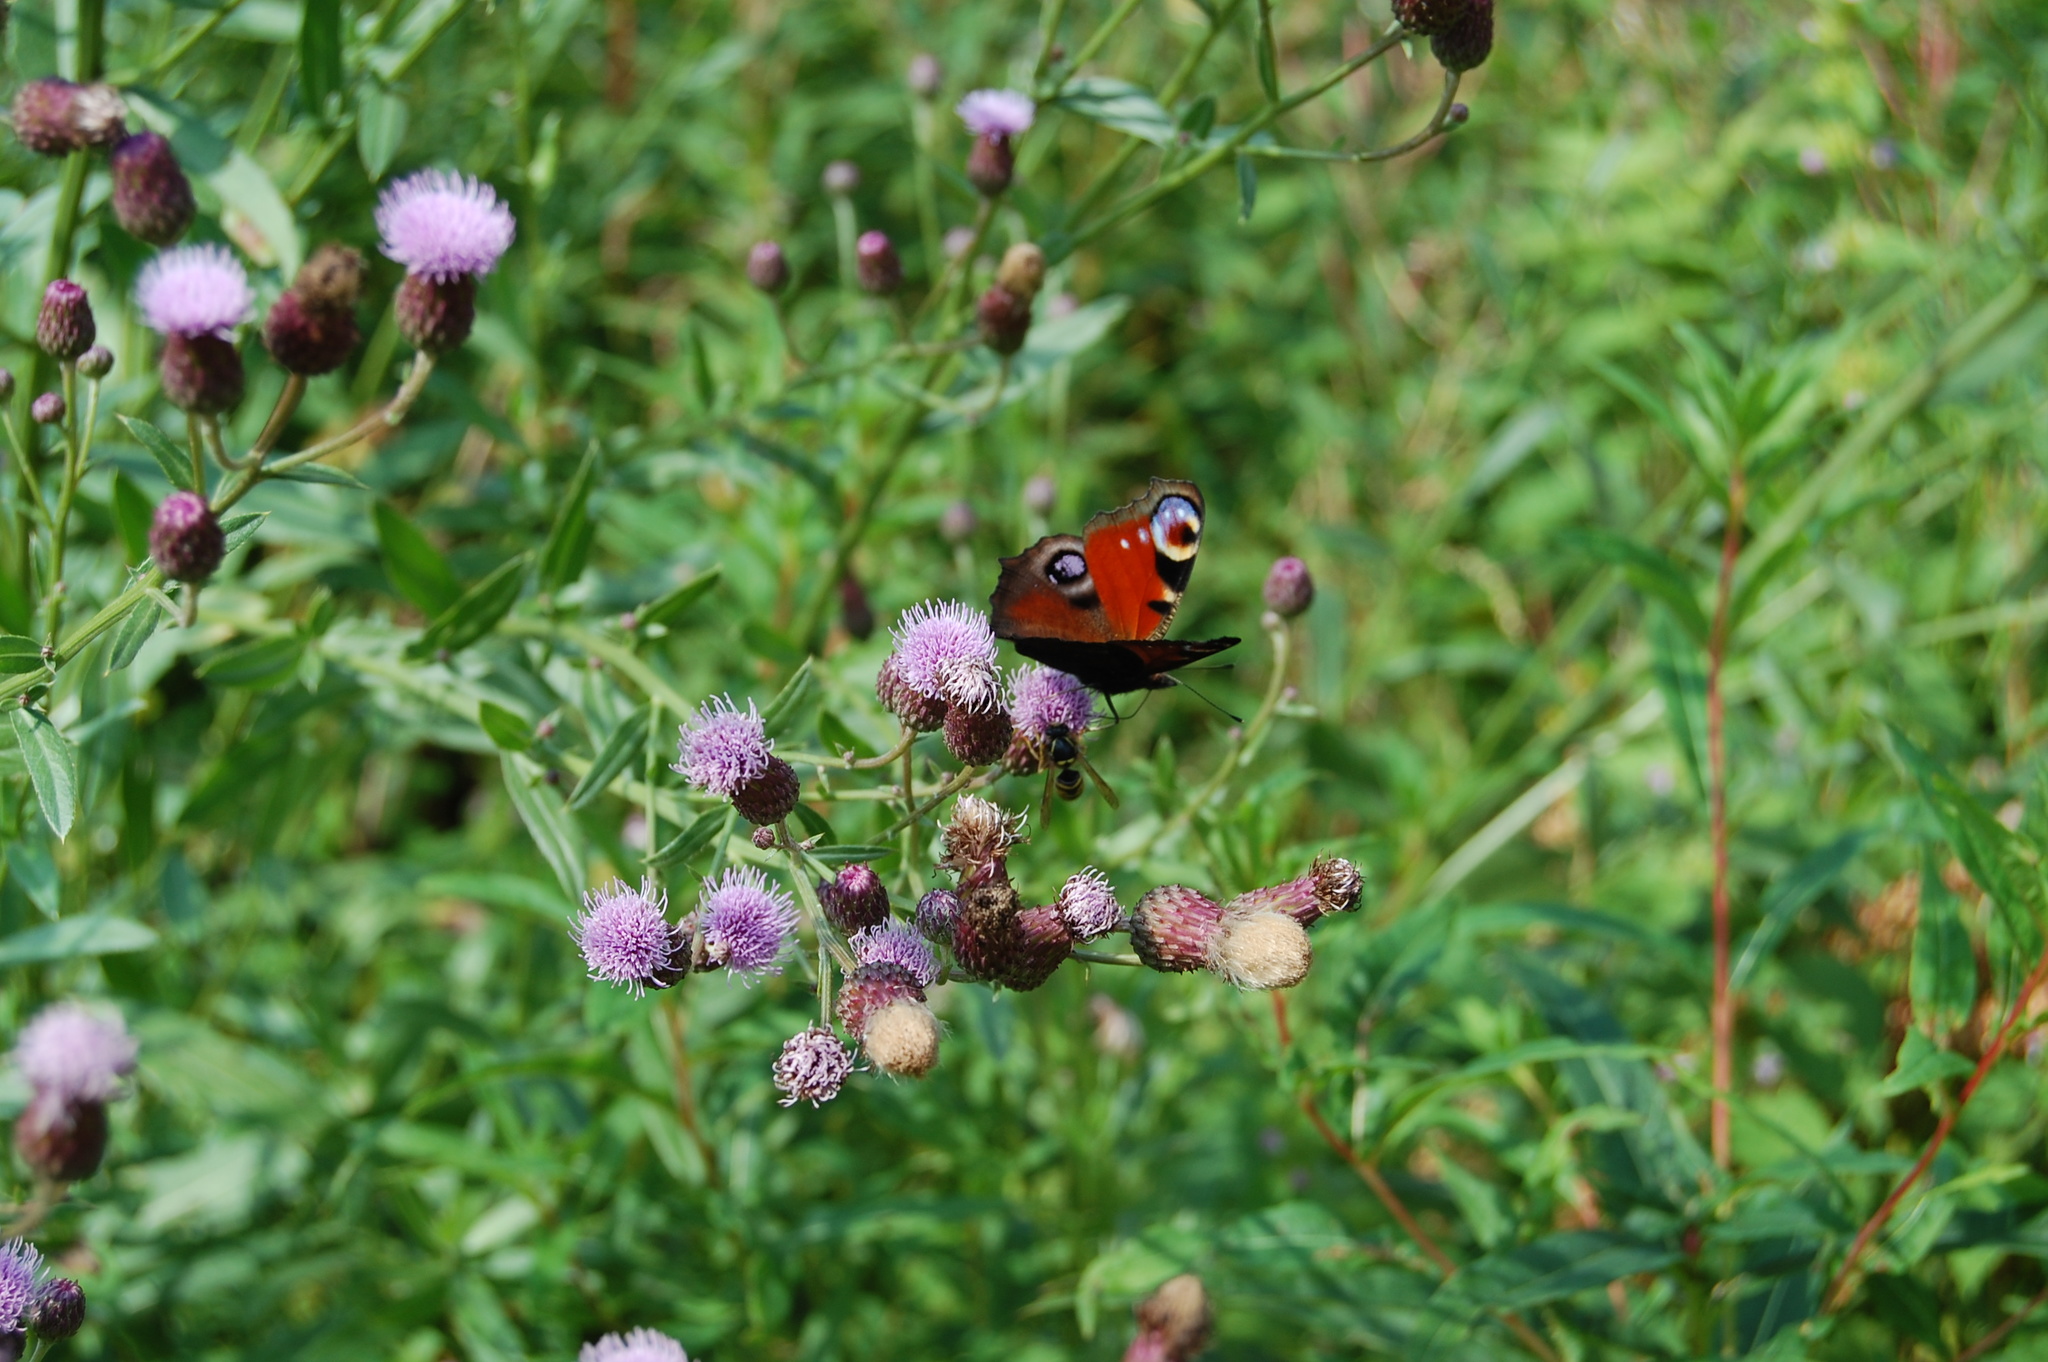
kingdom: Plantae
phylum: Tracheophyta
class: Magnoliopsida
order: Asterales
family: Asteraceae
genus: Cirsium
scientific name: Cirsium arvense
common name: Creeping thistle
